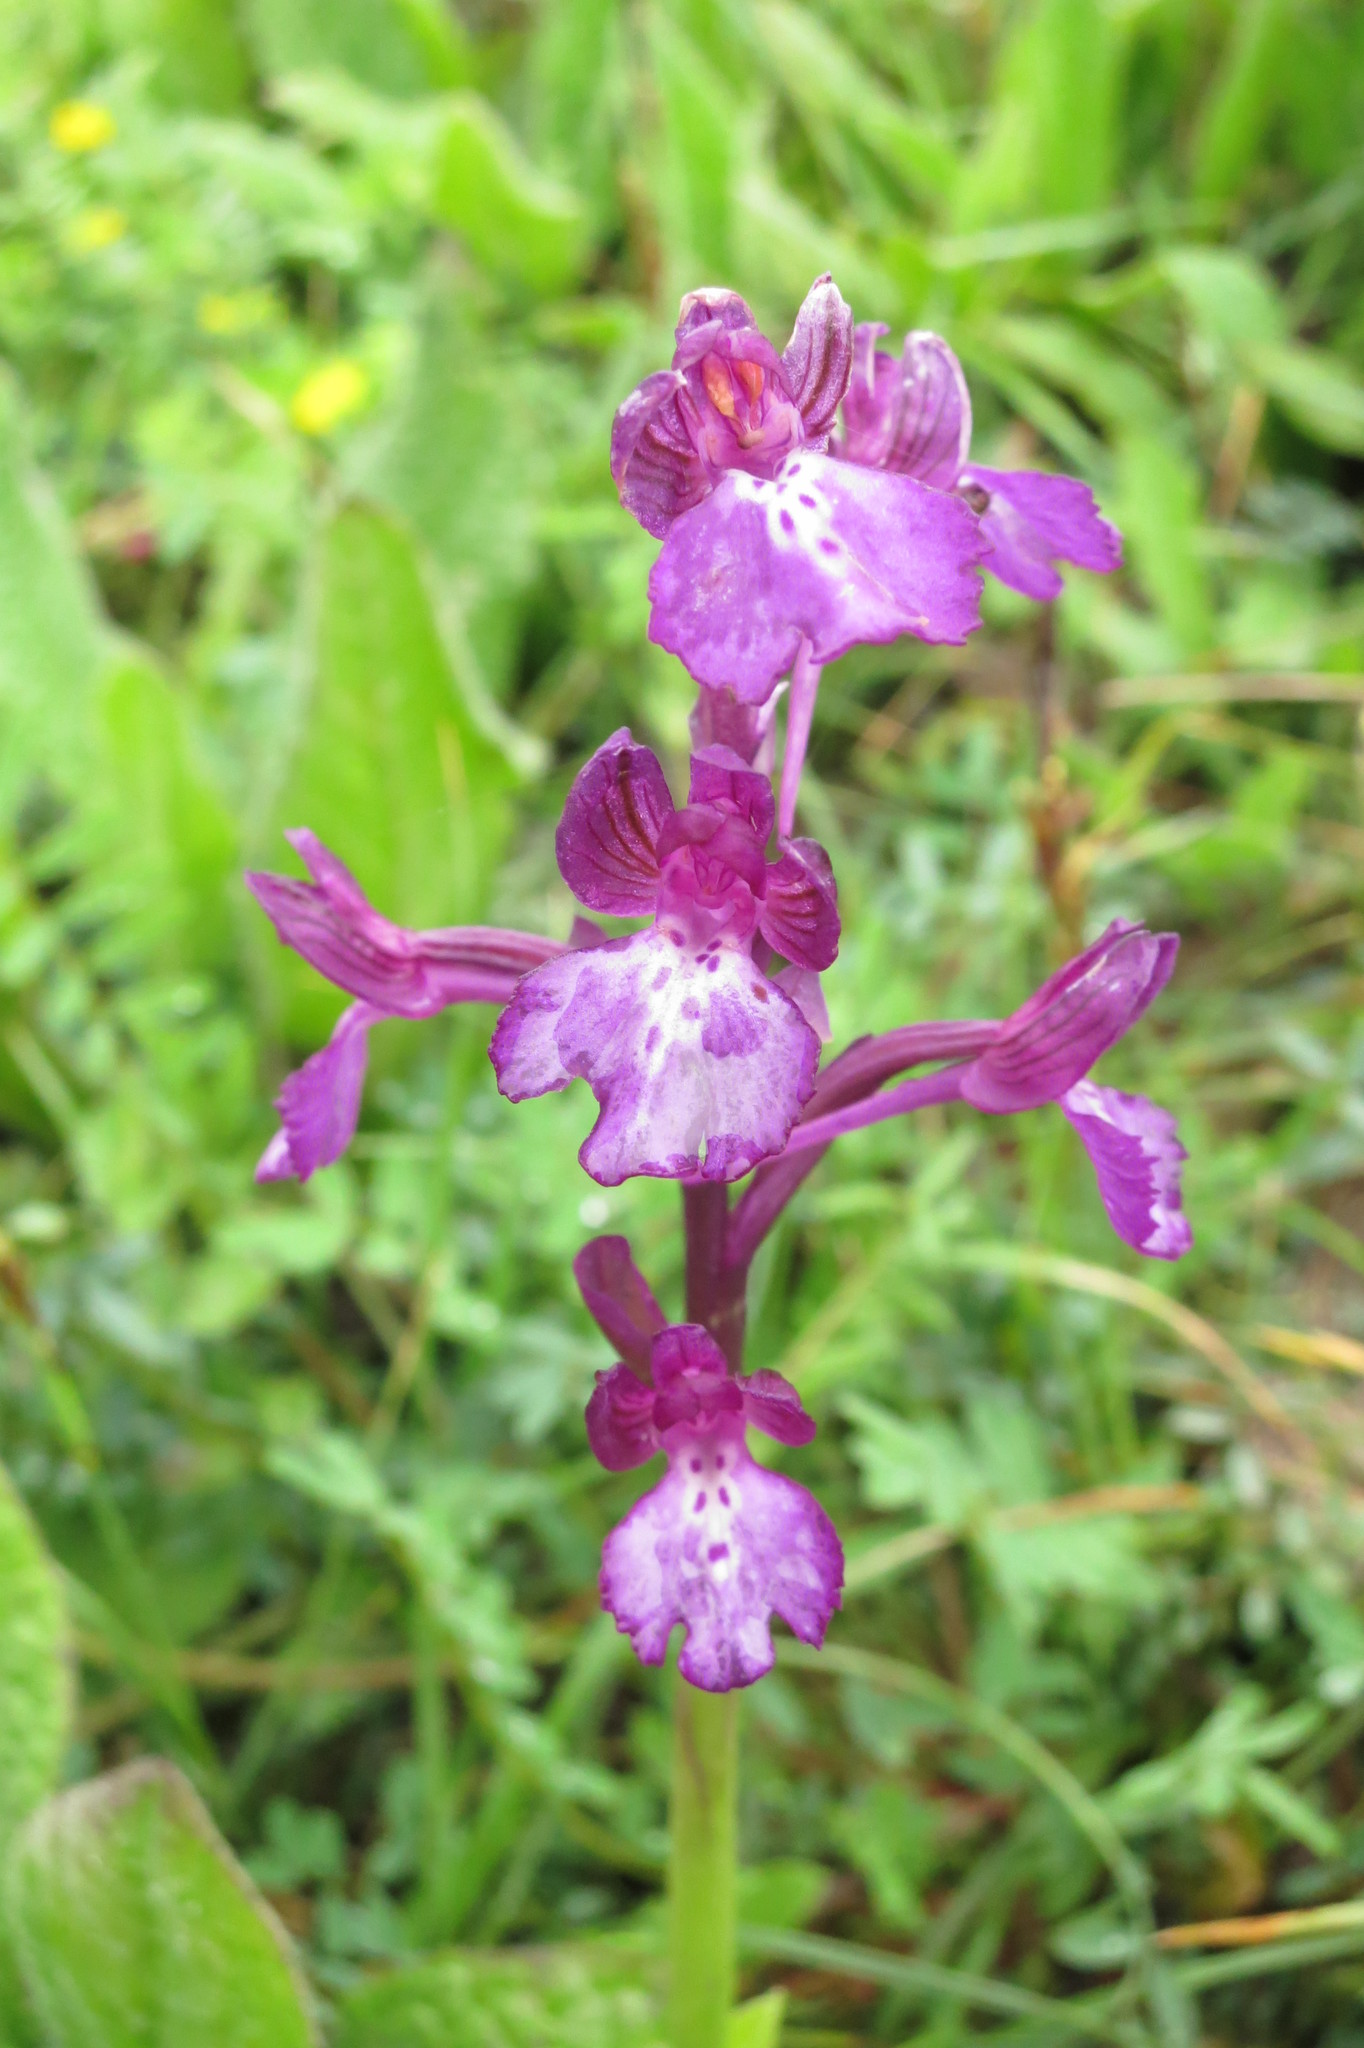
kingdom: Plantae
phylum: Tracheophyta
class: Liliopsida
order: Asparagales
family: Orchidaceae
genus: Anacamptis
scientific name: Anacamptis boryi
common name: Bory's anacamptis
